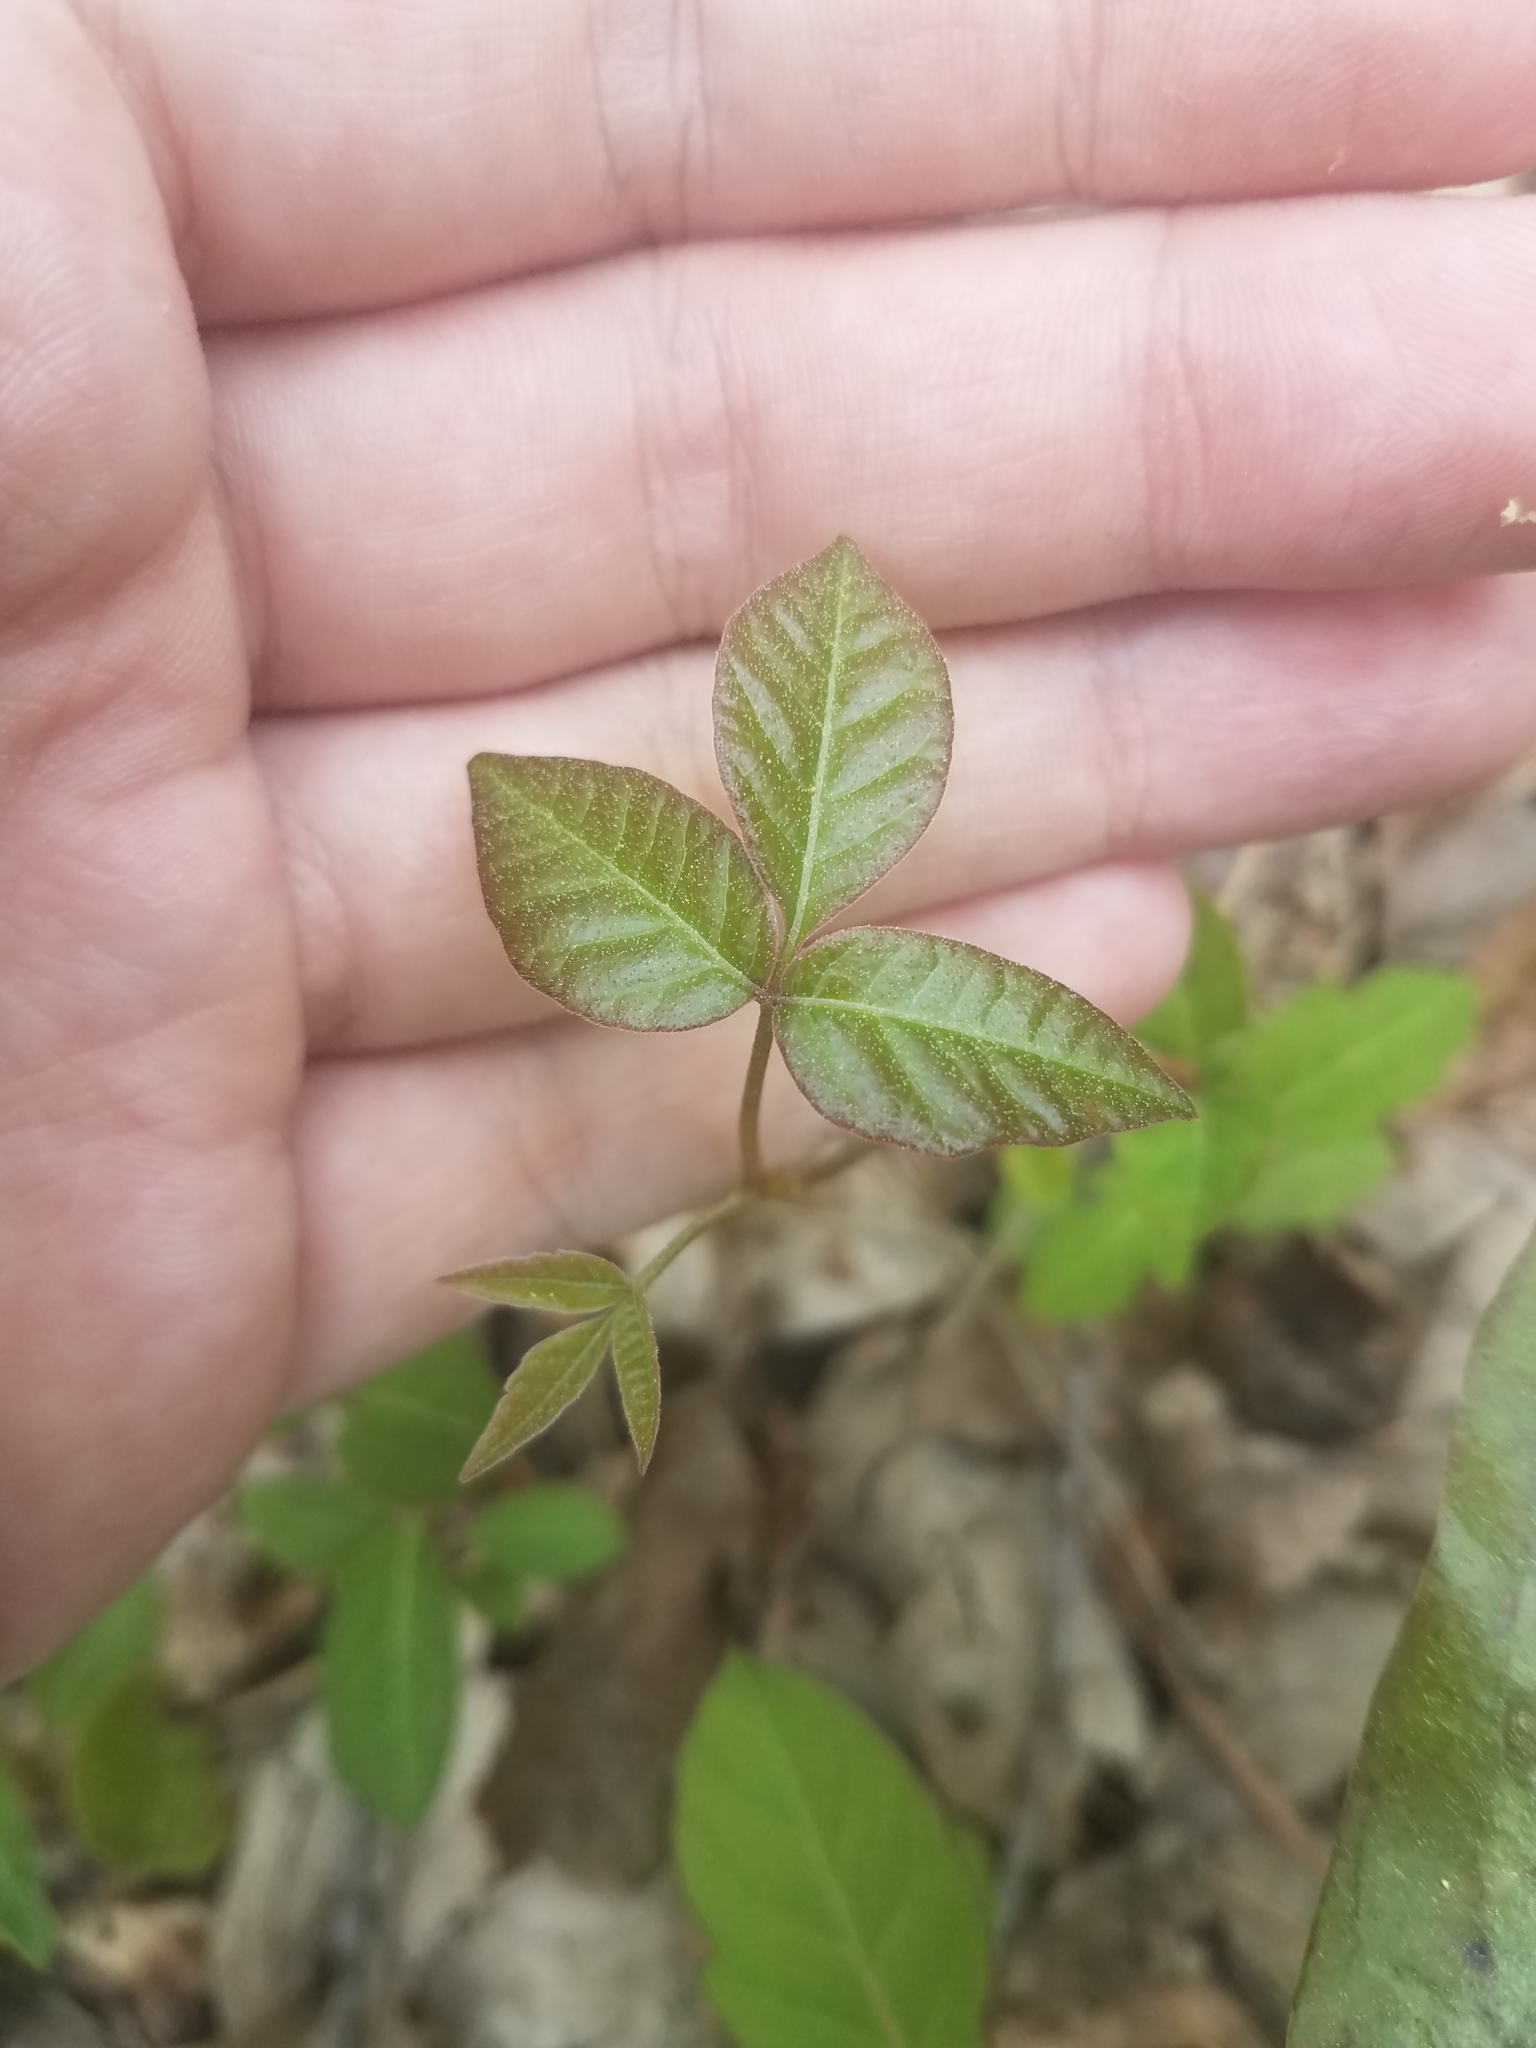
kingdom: Plantae
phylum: Tracheophyta
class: Magnoliopsida
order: Sapindales
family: Anacardiaceae
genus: Toxicodendron
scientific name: Toxicodendron radicans
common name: Poison ivy
